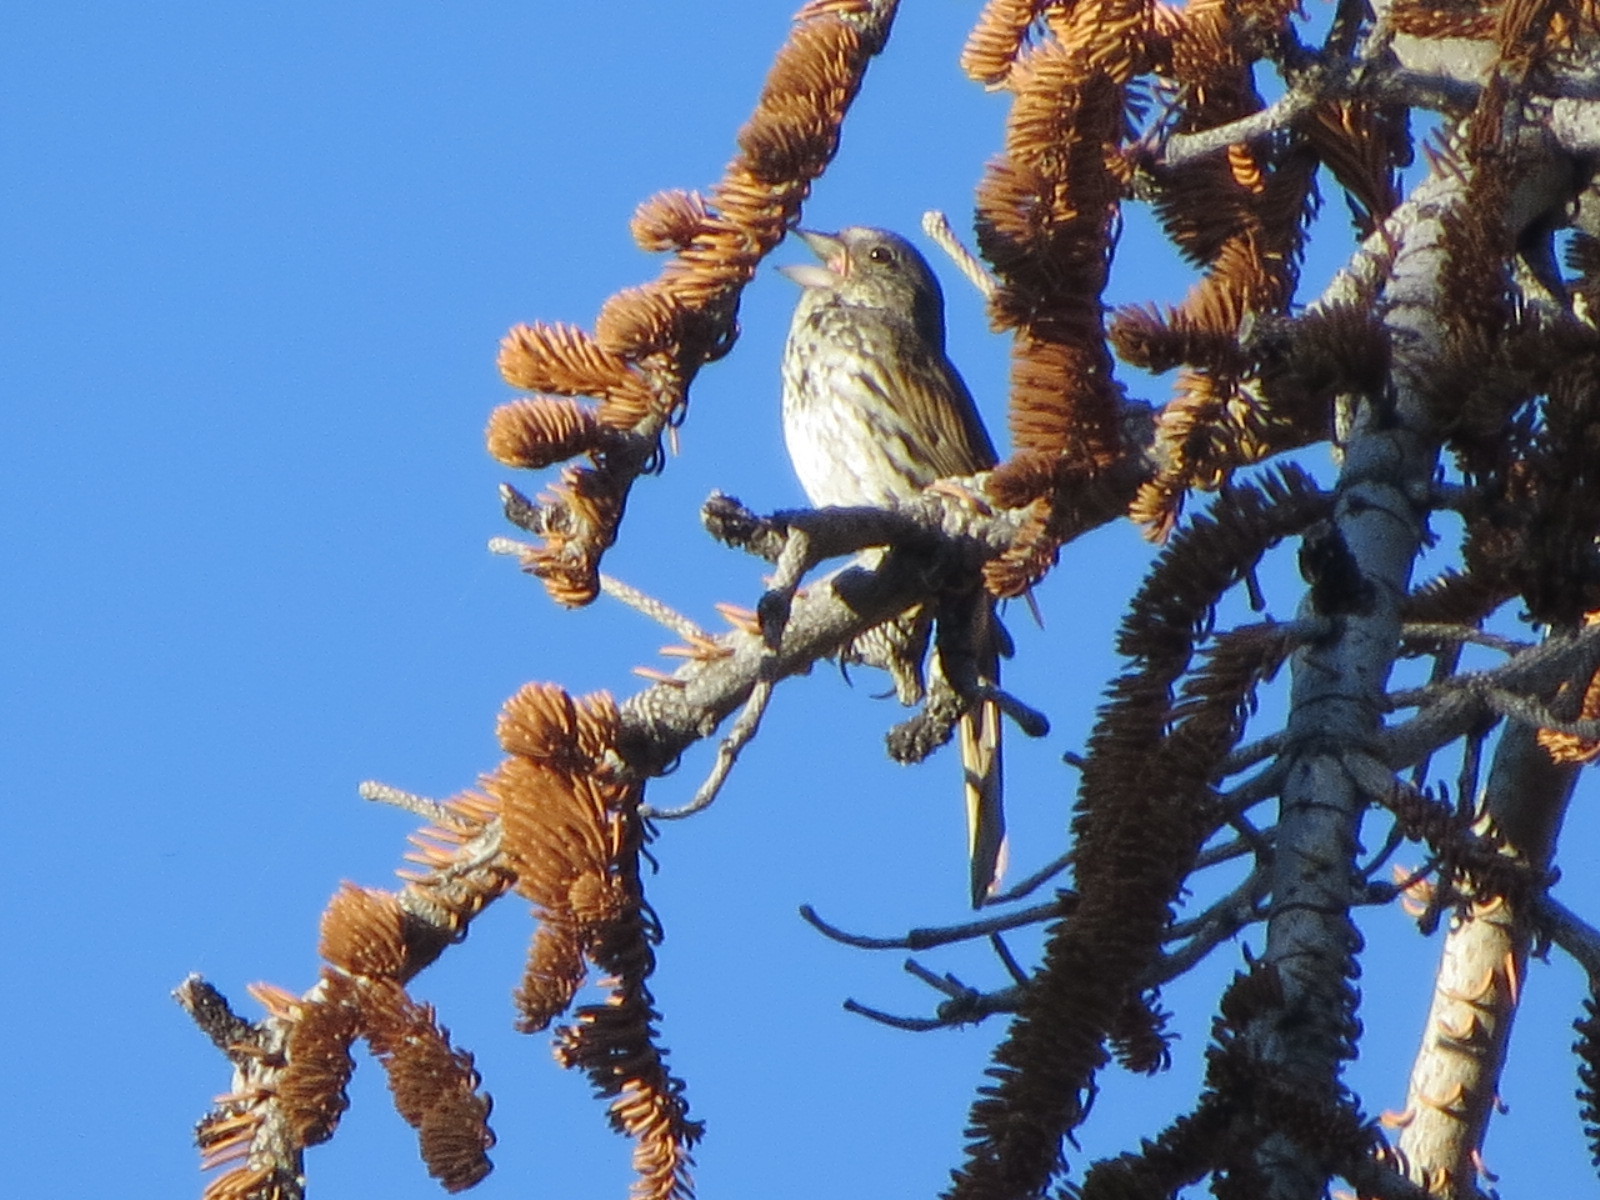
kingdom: Animalia
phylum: Chordata
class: Aves
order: Passeriformes
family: Passerellidae
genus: Passerella
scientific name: Passerella megarhyncha
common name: Thick-billed fox sparrow
